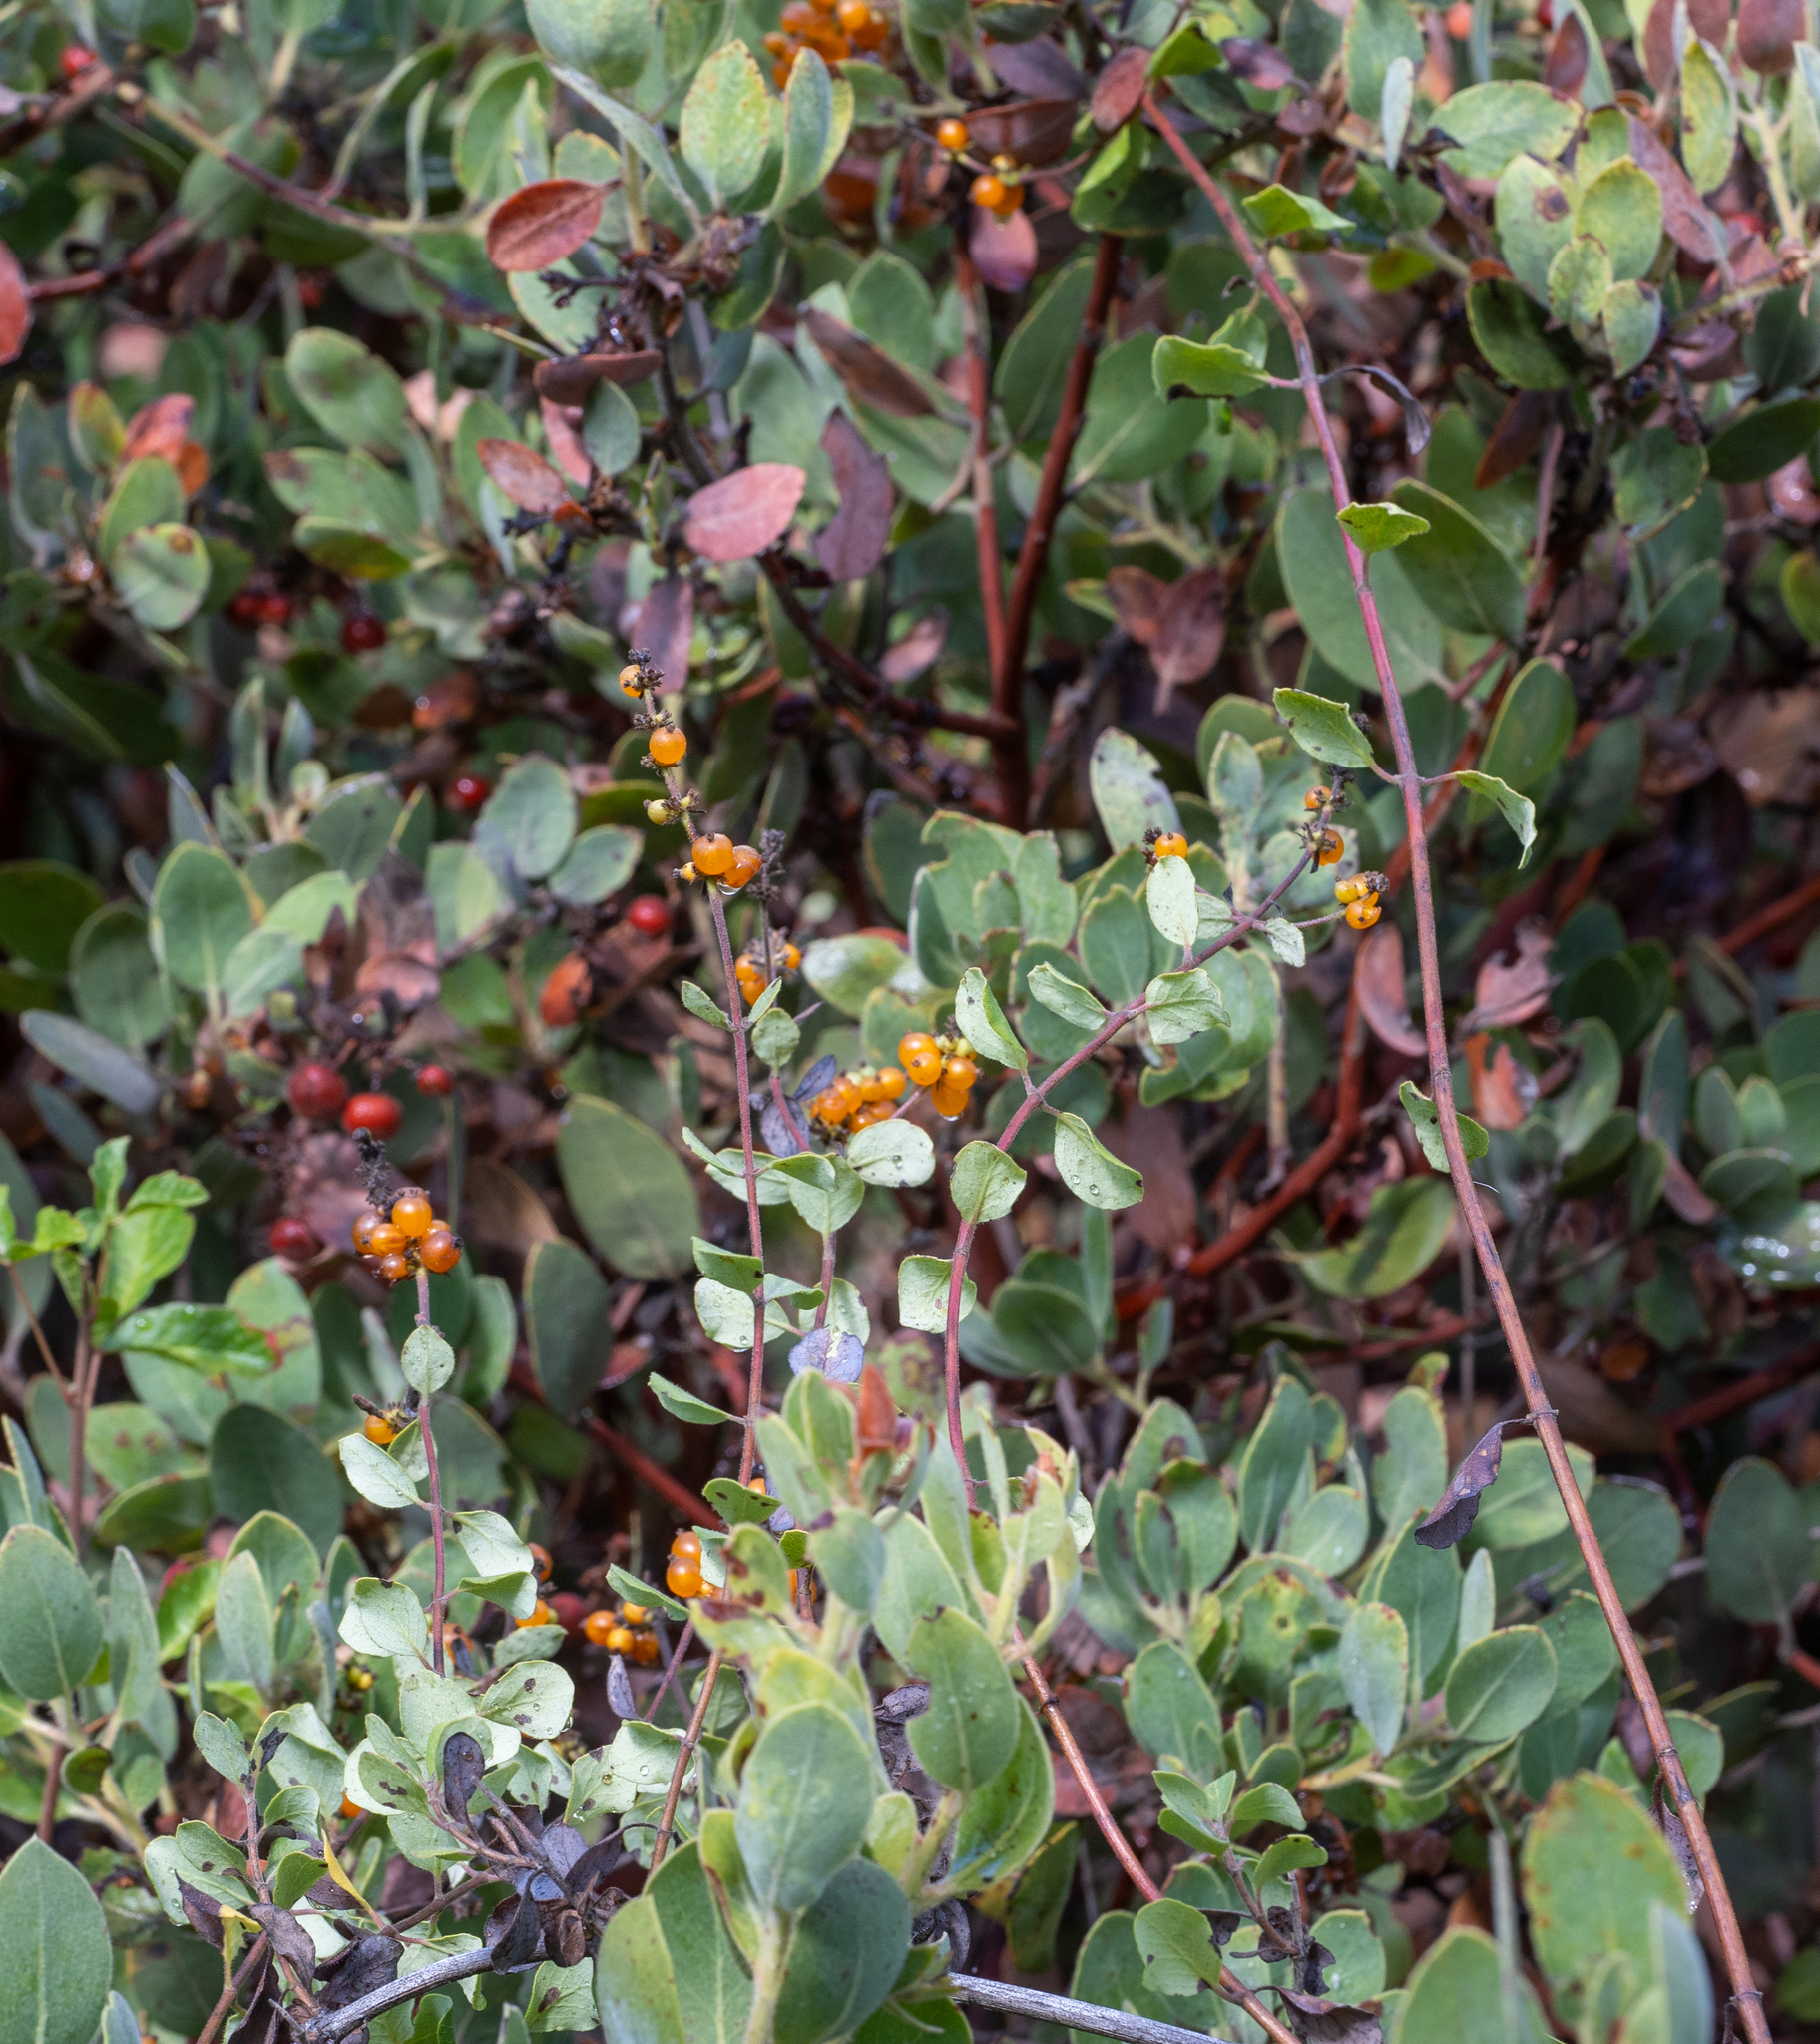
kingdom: Plantae
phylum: Tracheophyta
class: Magnoliopsida
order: Dipsacales
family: Caprifoliaceae
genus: Lonicera
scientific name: Lonicera subspicata
